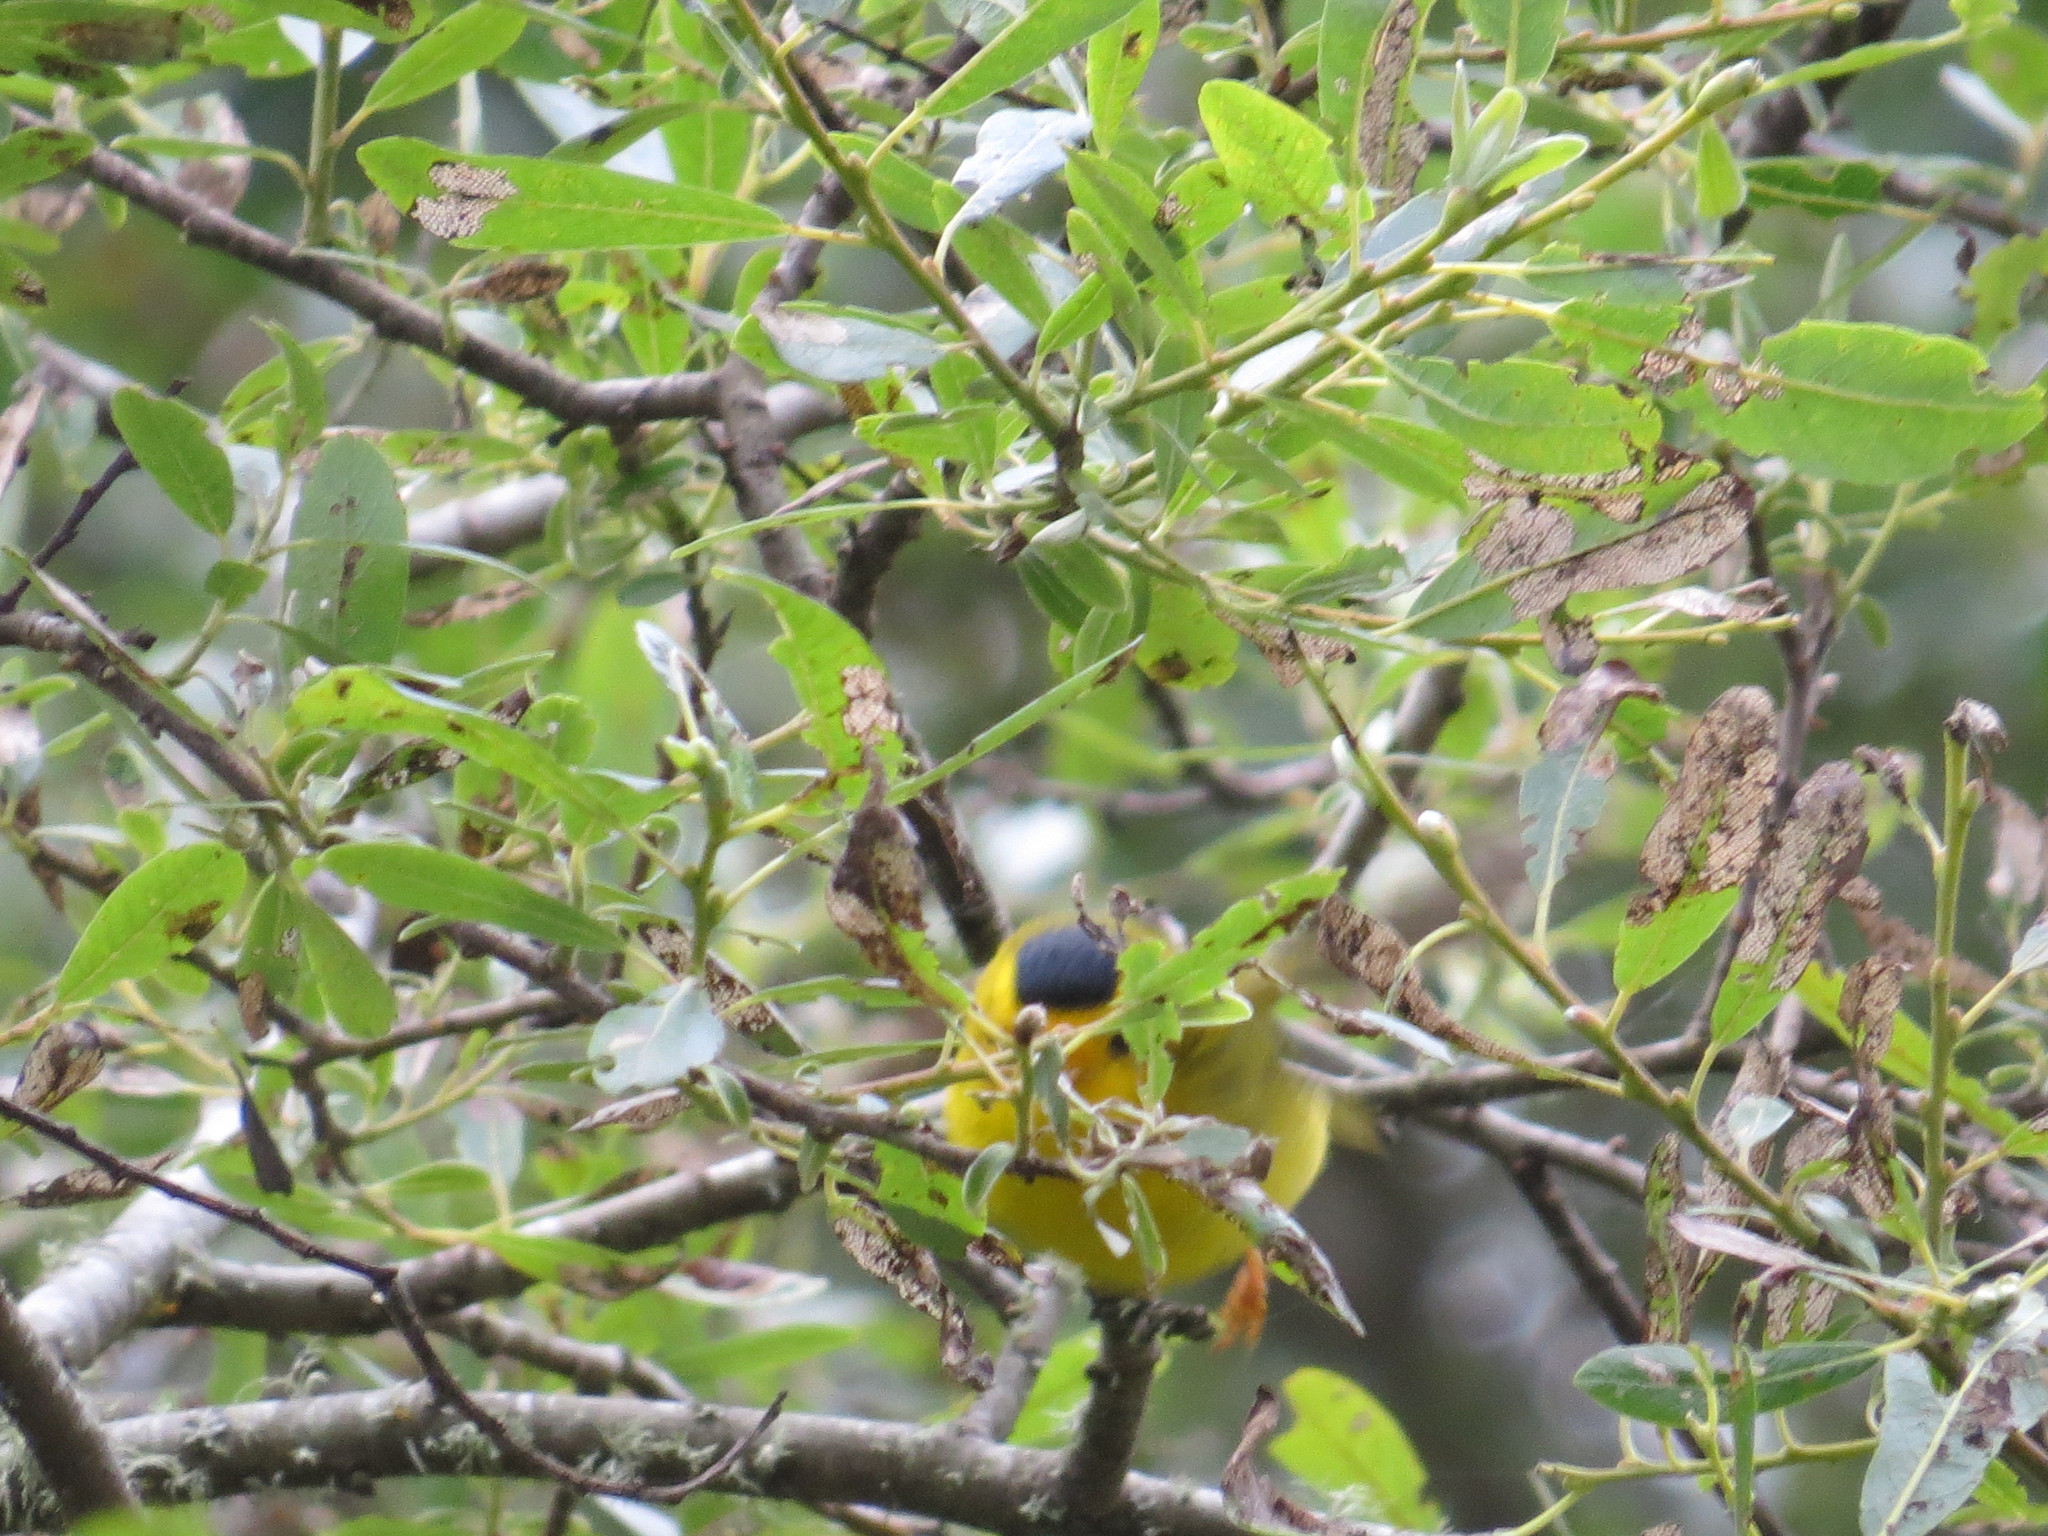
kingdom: Animalia
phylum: Chordata
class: Aves
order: Passeriformes
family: Parulidae
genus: Cardellina
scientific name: Cardellina pusilla
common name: Wilson's warbler
